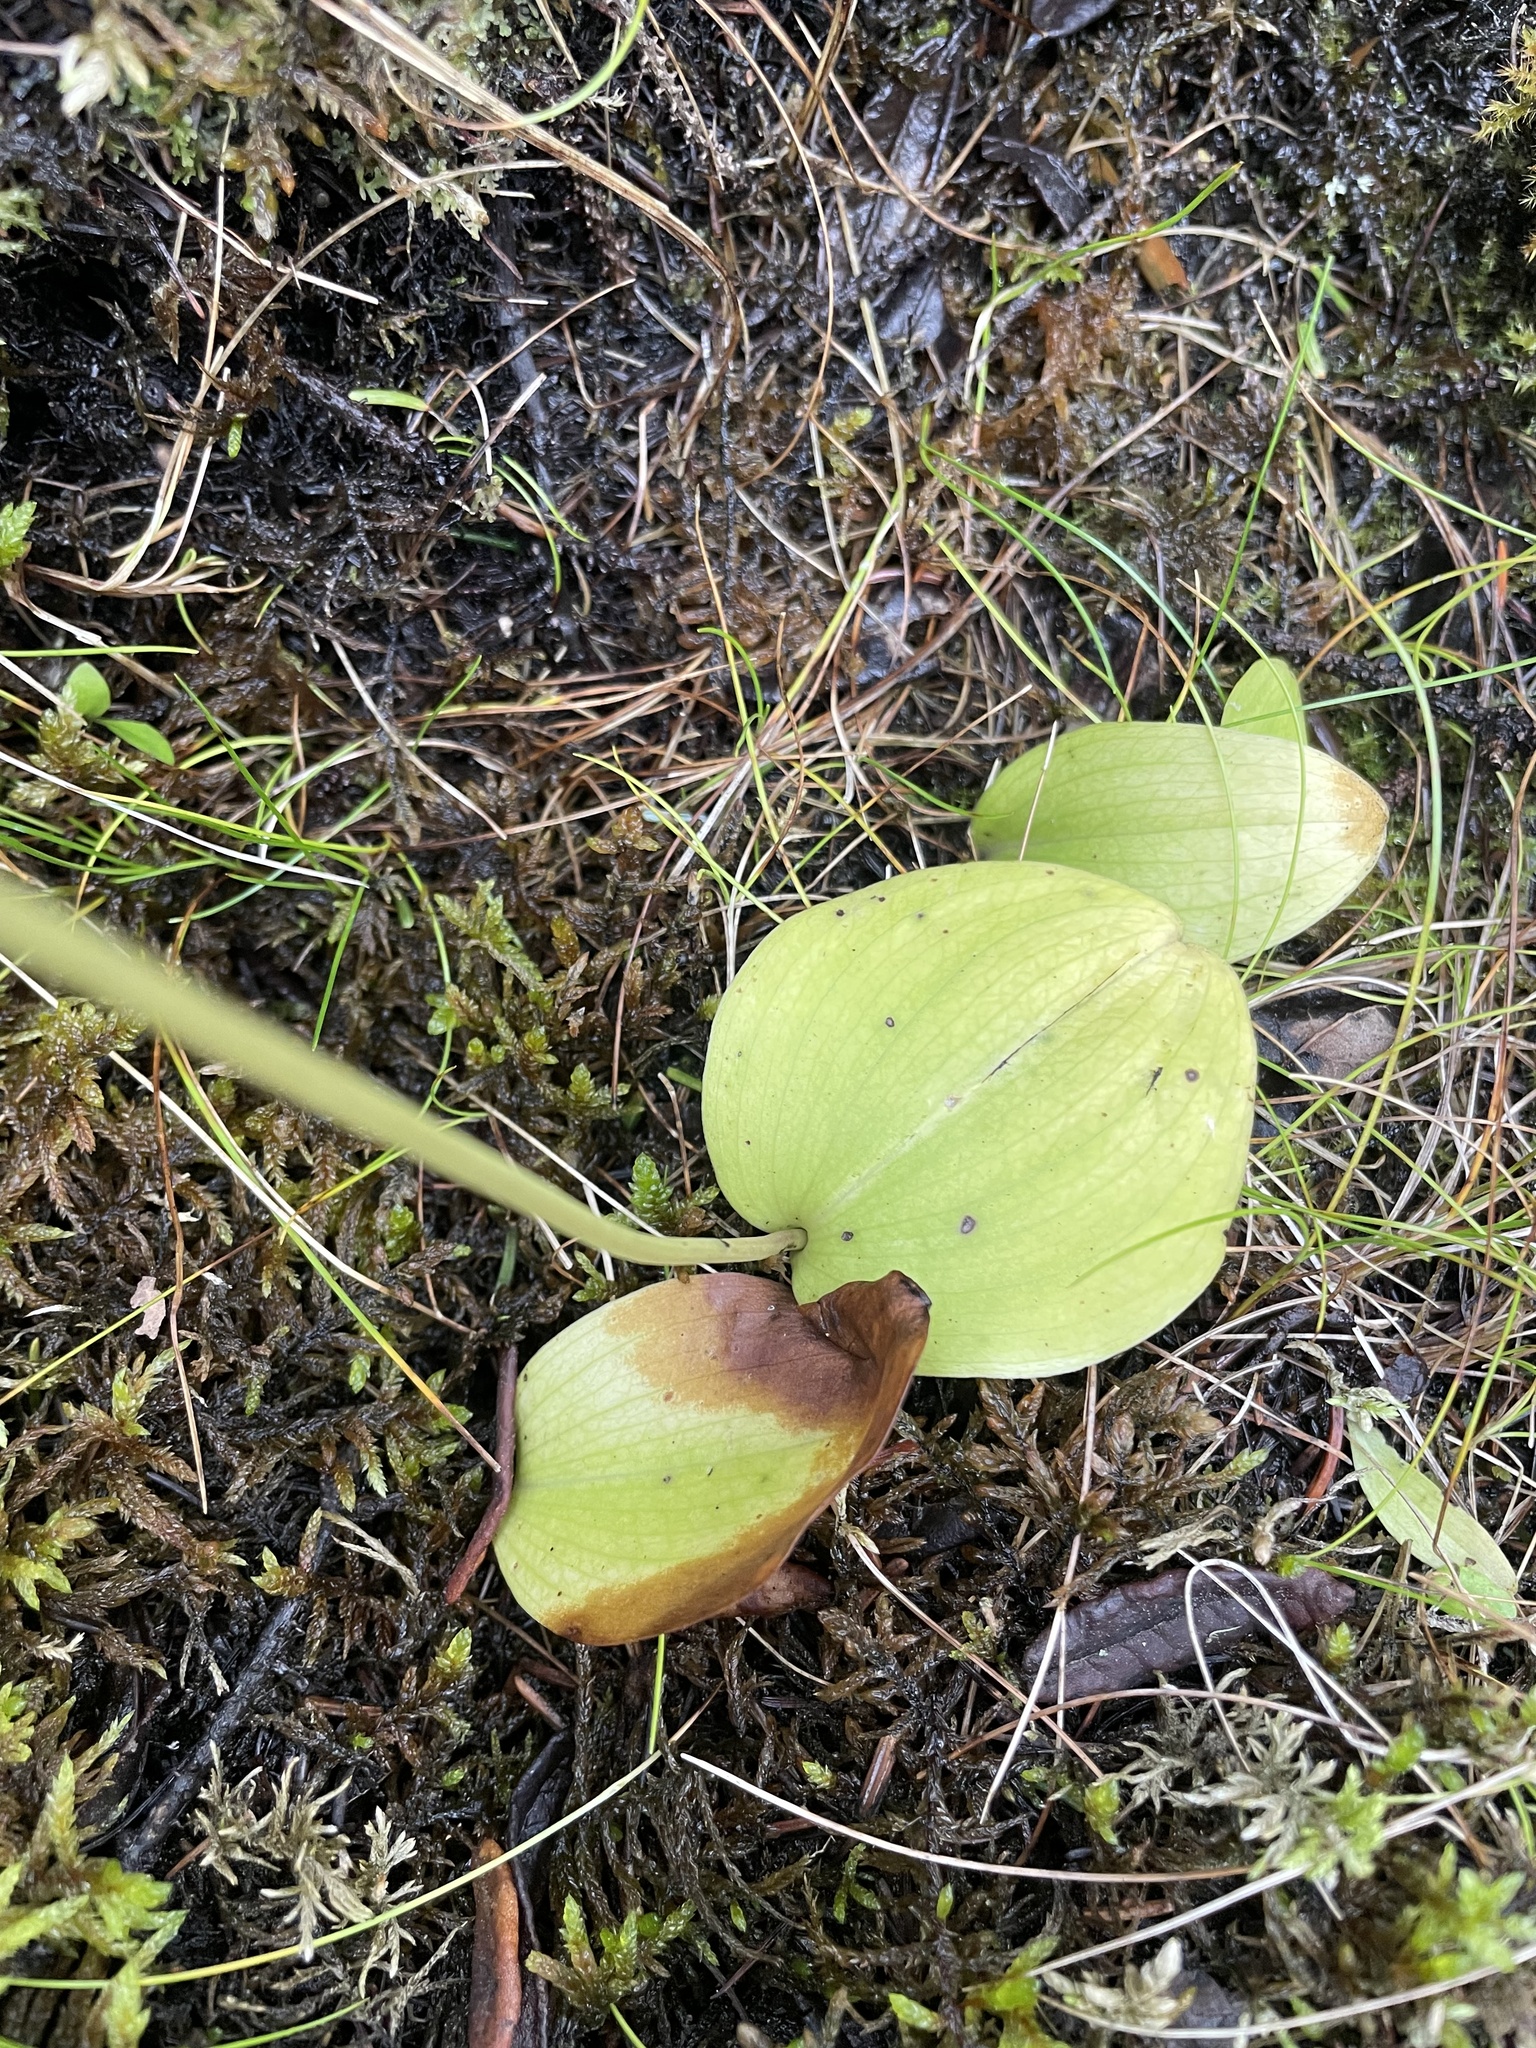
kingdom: Plantae
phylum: Tracheophyta
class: Liliopsida
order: Asparagales
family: Orchidaceae
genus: Galearis
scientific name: Galearis rotundifolia
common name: One-leaved orchis
